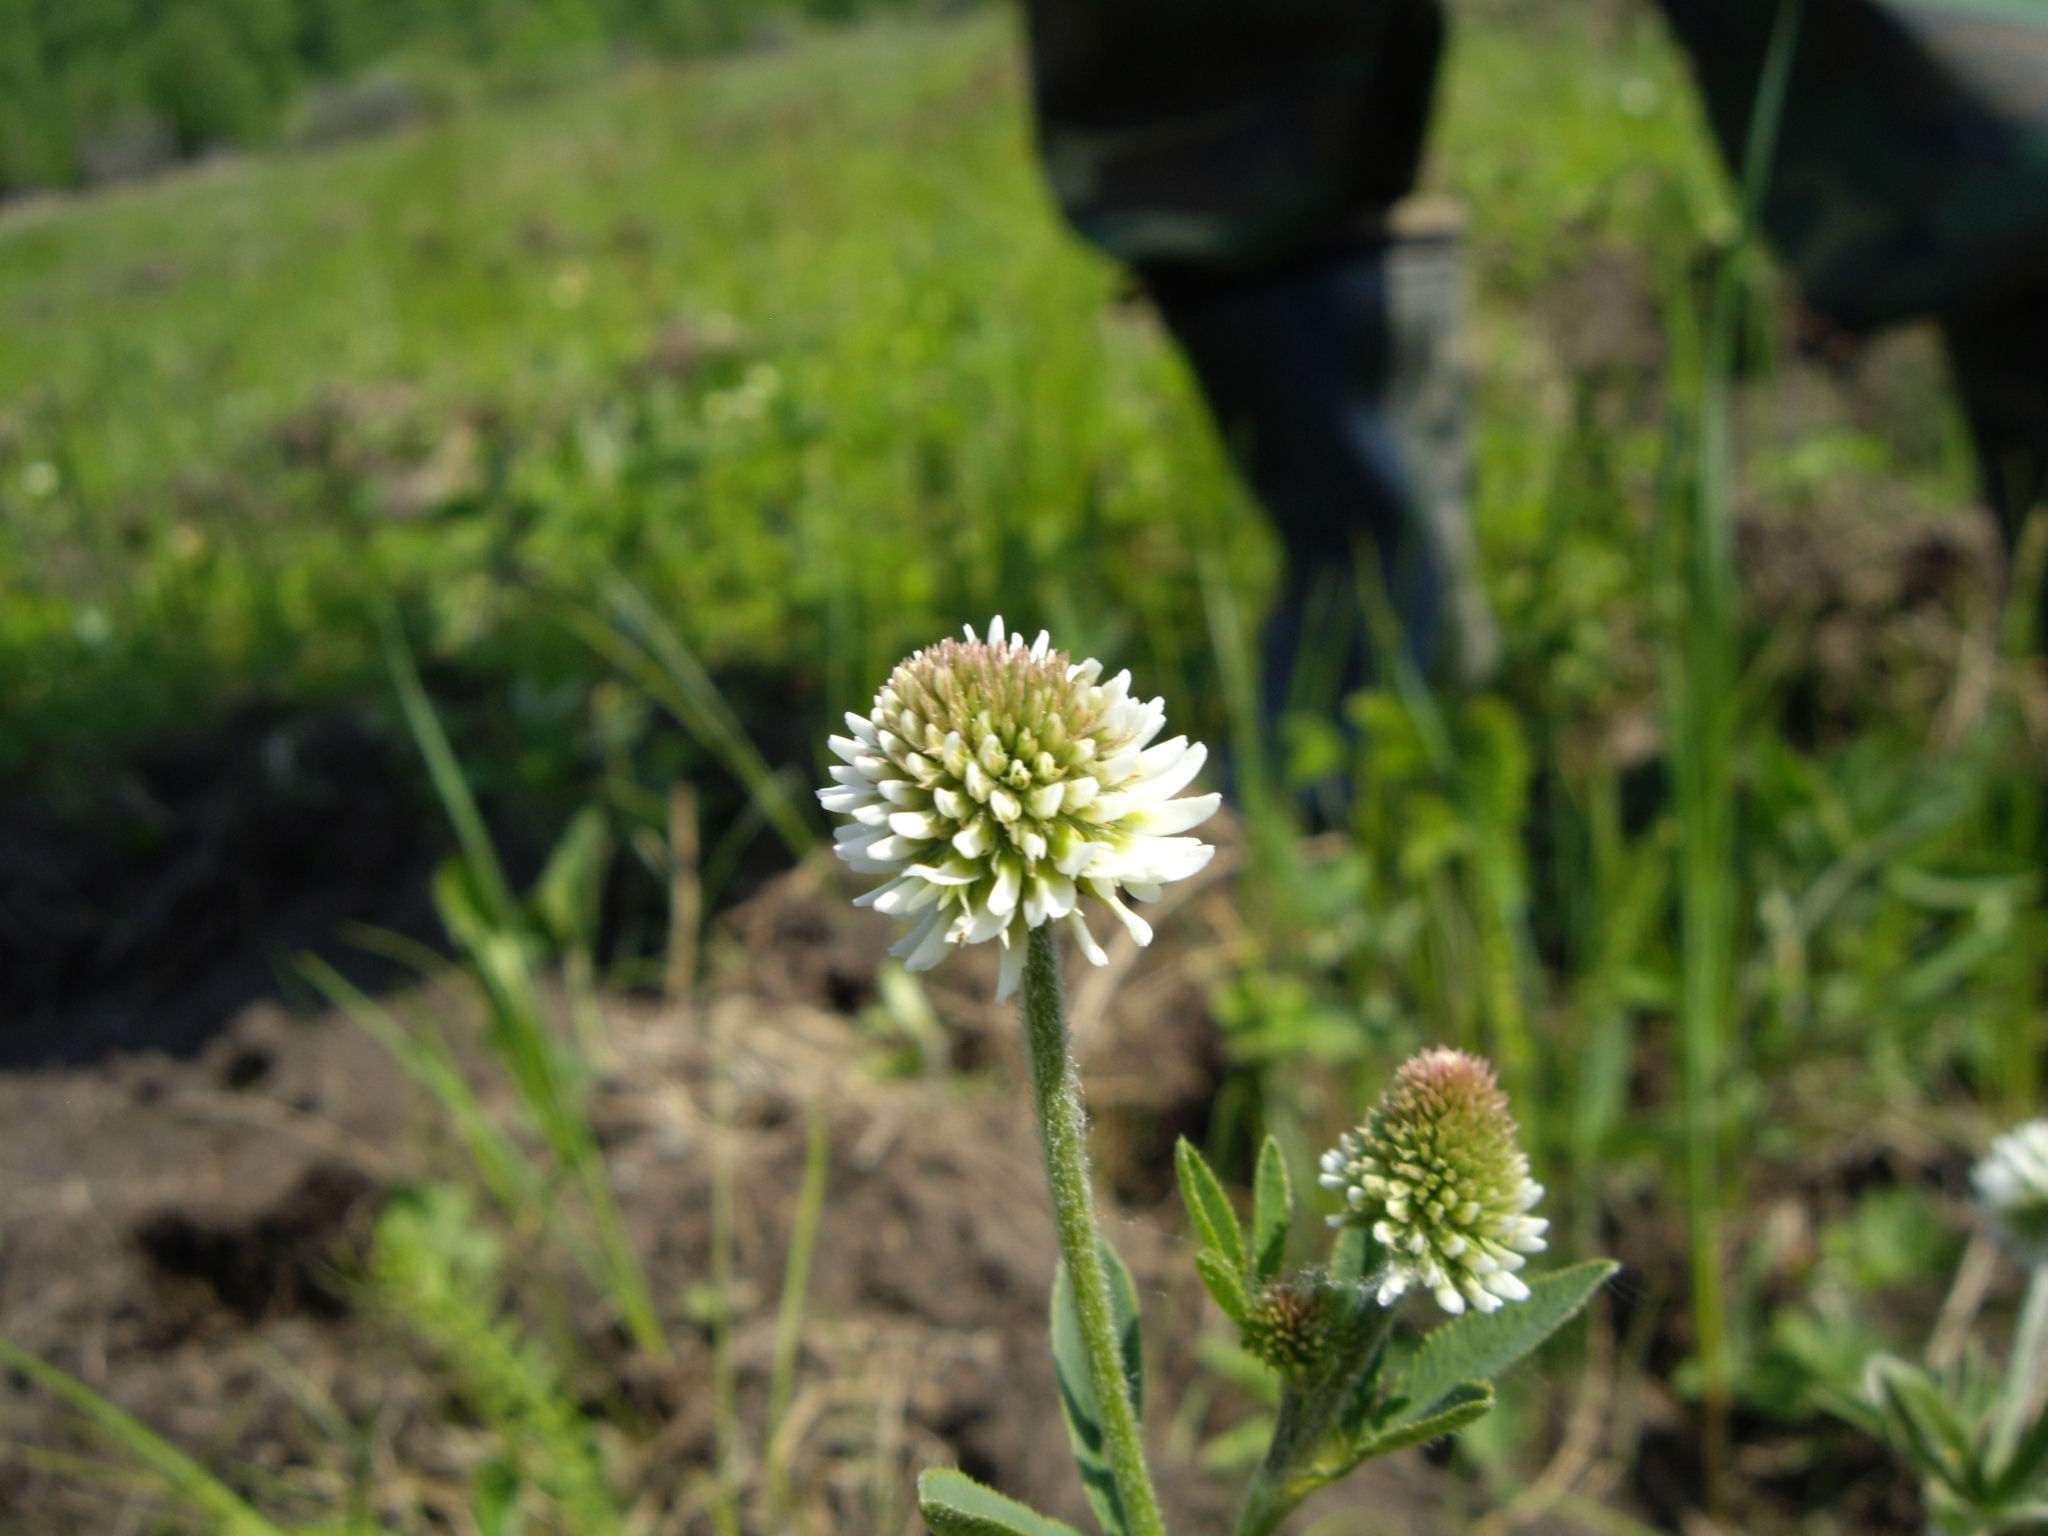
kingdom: Plantae
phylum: Tracheophyta
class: Magnoliopsida
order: Fabales
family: Fabaceae
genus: Trifolium
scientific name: Trifolium montanum
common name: Mountain clover
